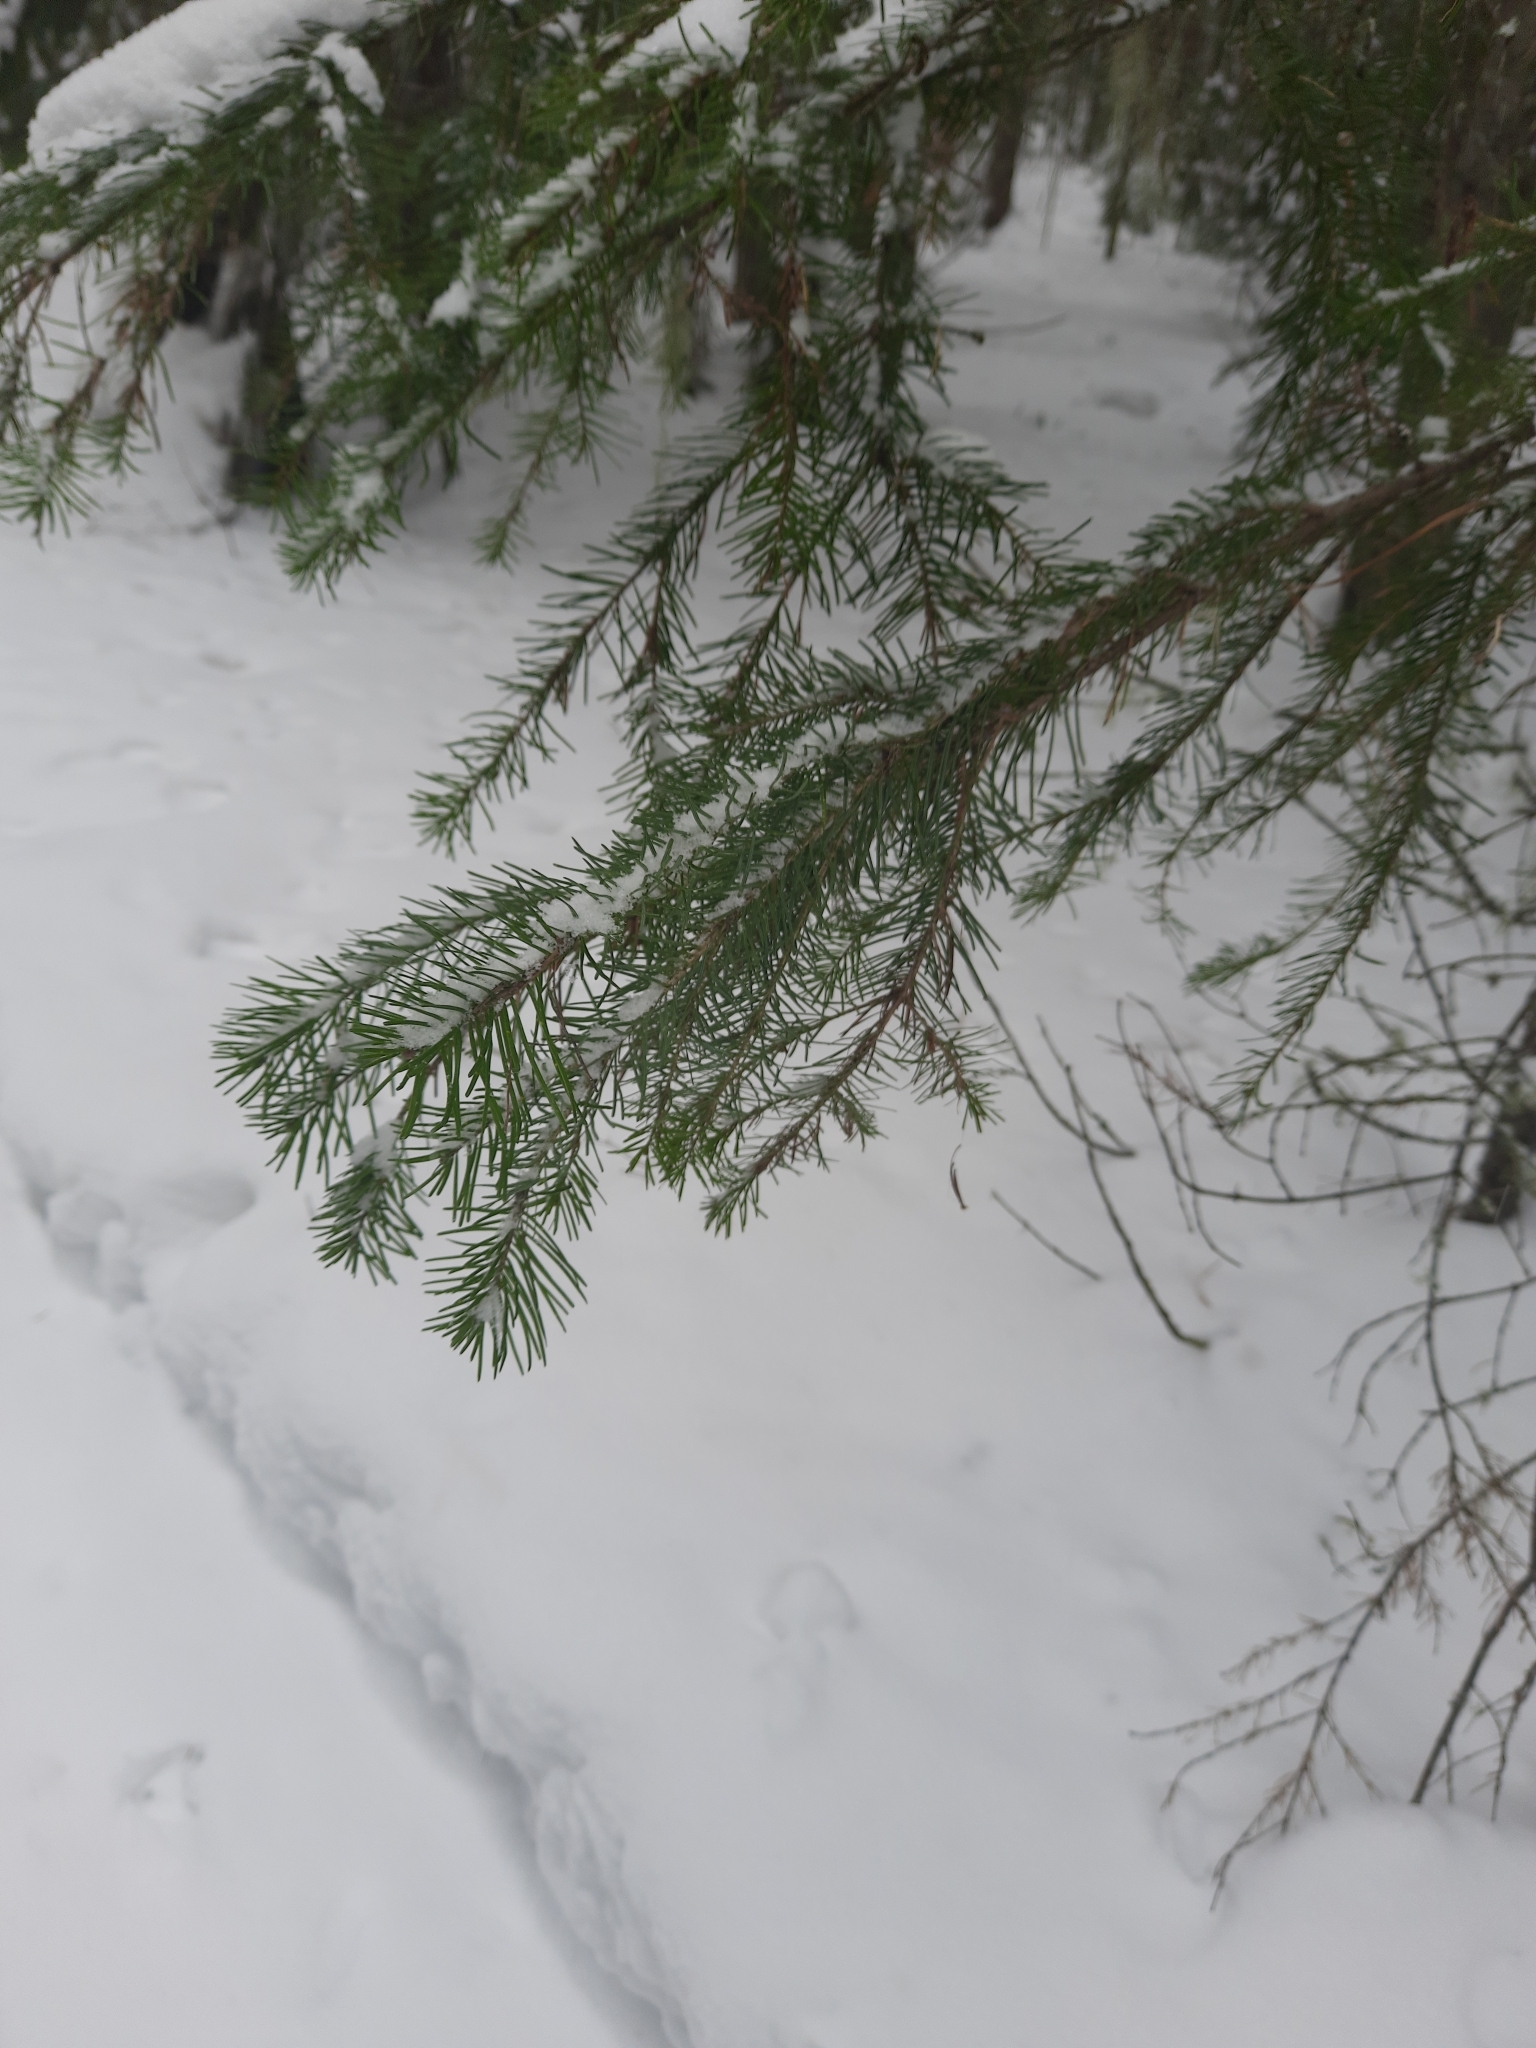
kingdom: Plantae
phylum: Tracheophyta
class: Pinopsida
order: Pinales
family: Pinaceae
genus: Abies
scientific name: Abies sibirica
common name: Siberian fir
